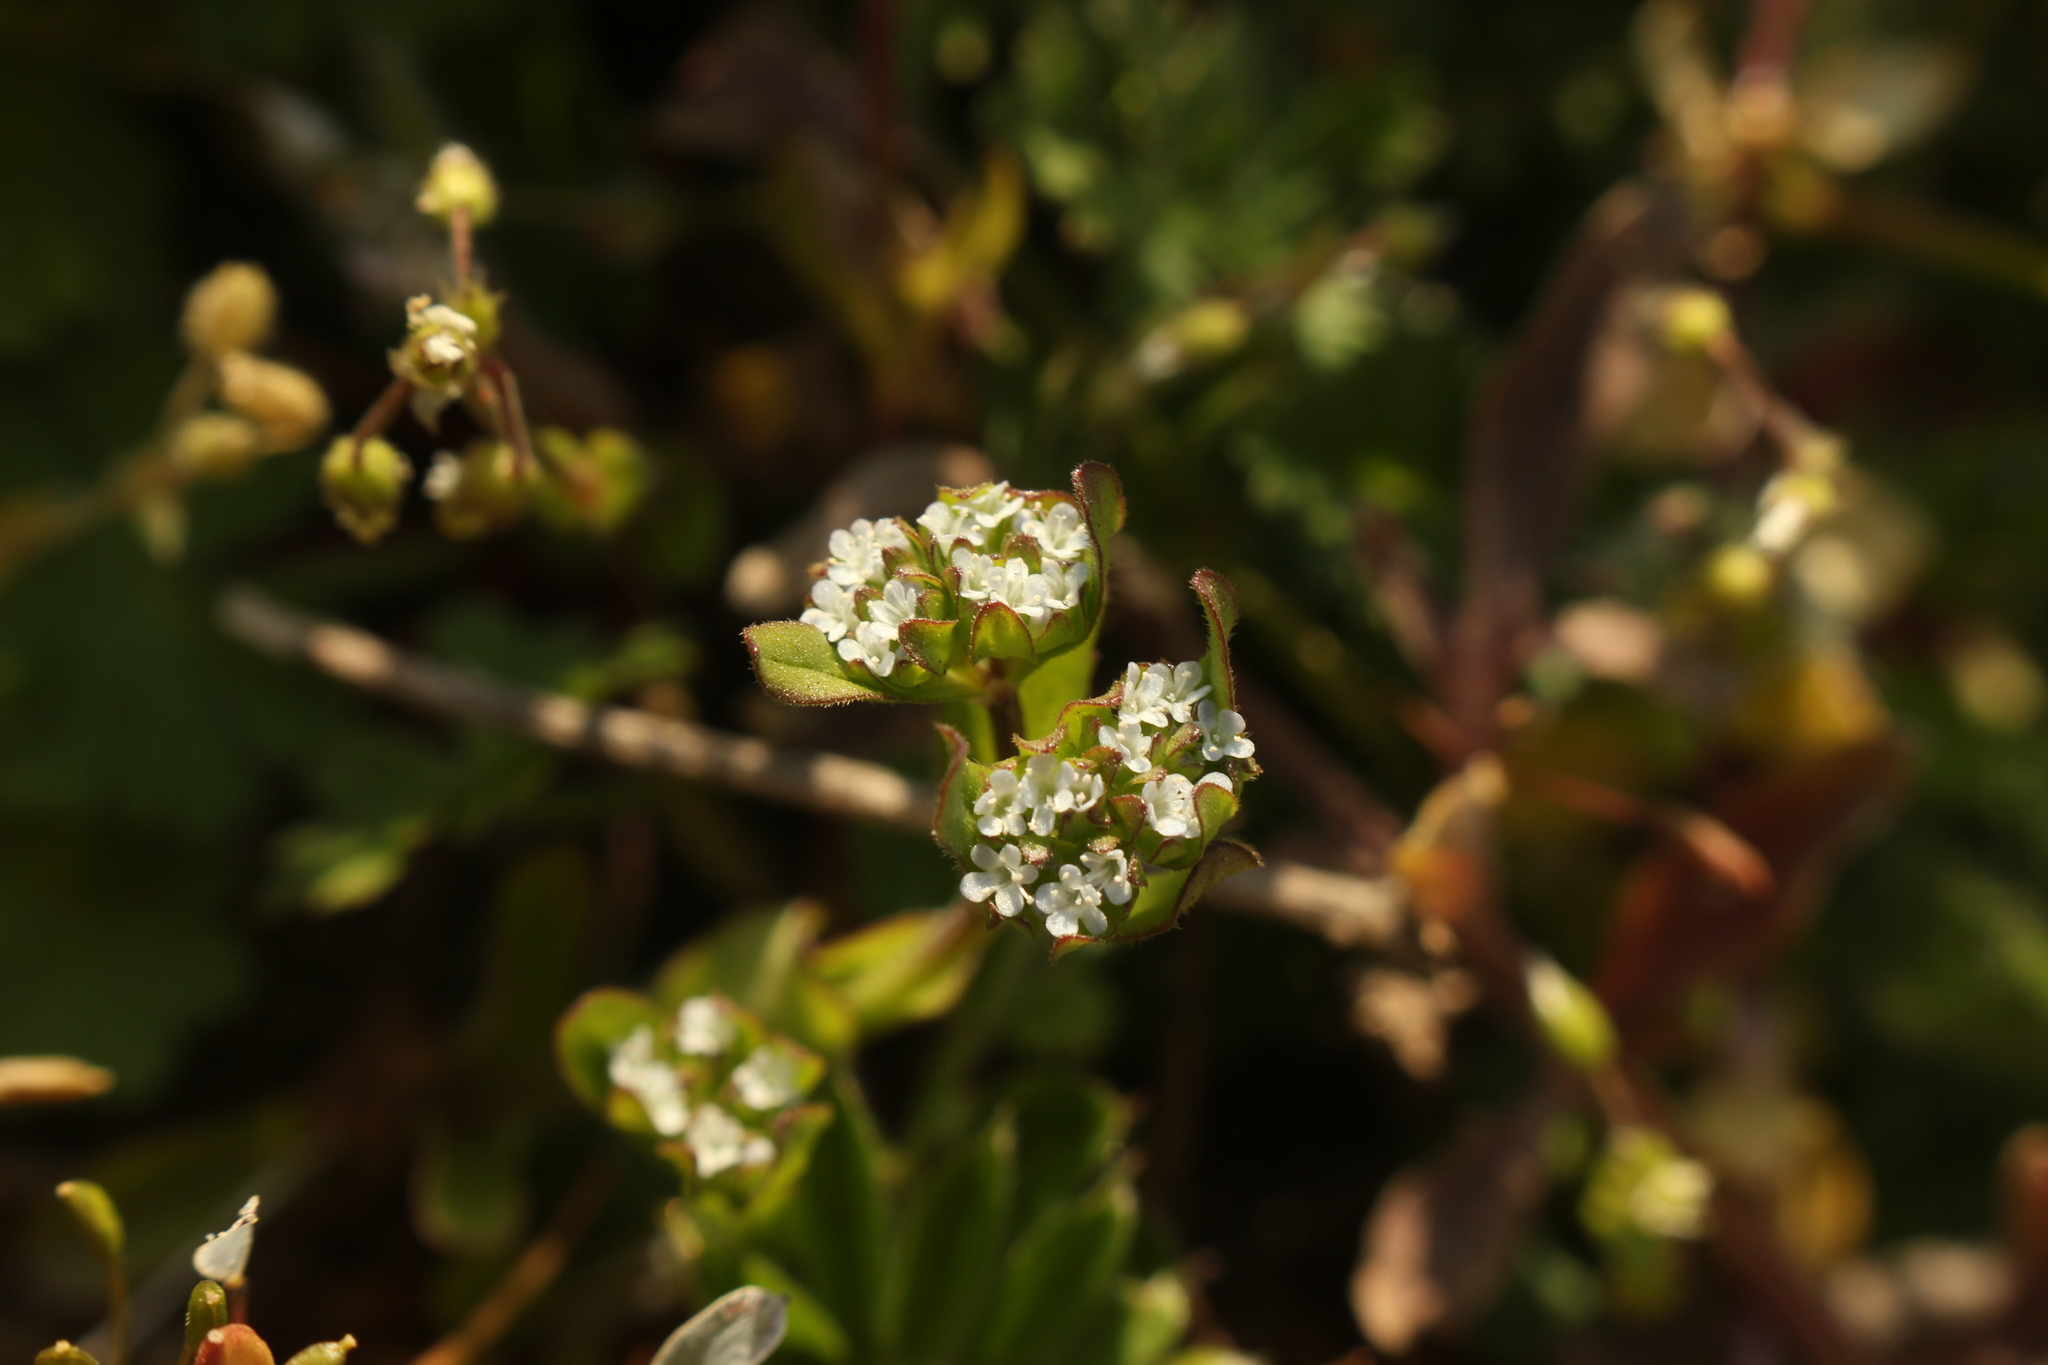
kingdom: Plantae
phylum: Tracheophyta
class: Magnoliopsida
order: Dipsacales
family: Caprifoliaceae
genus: Valerianella
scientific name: Valerianella locusta
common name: Common cornsalad
